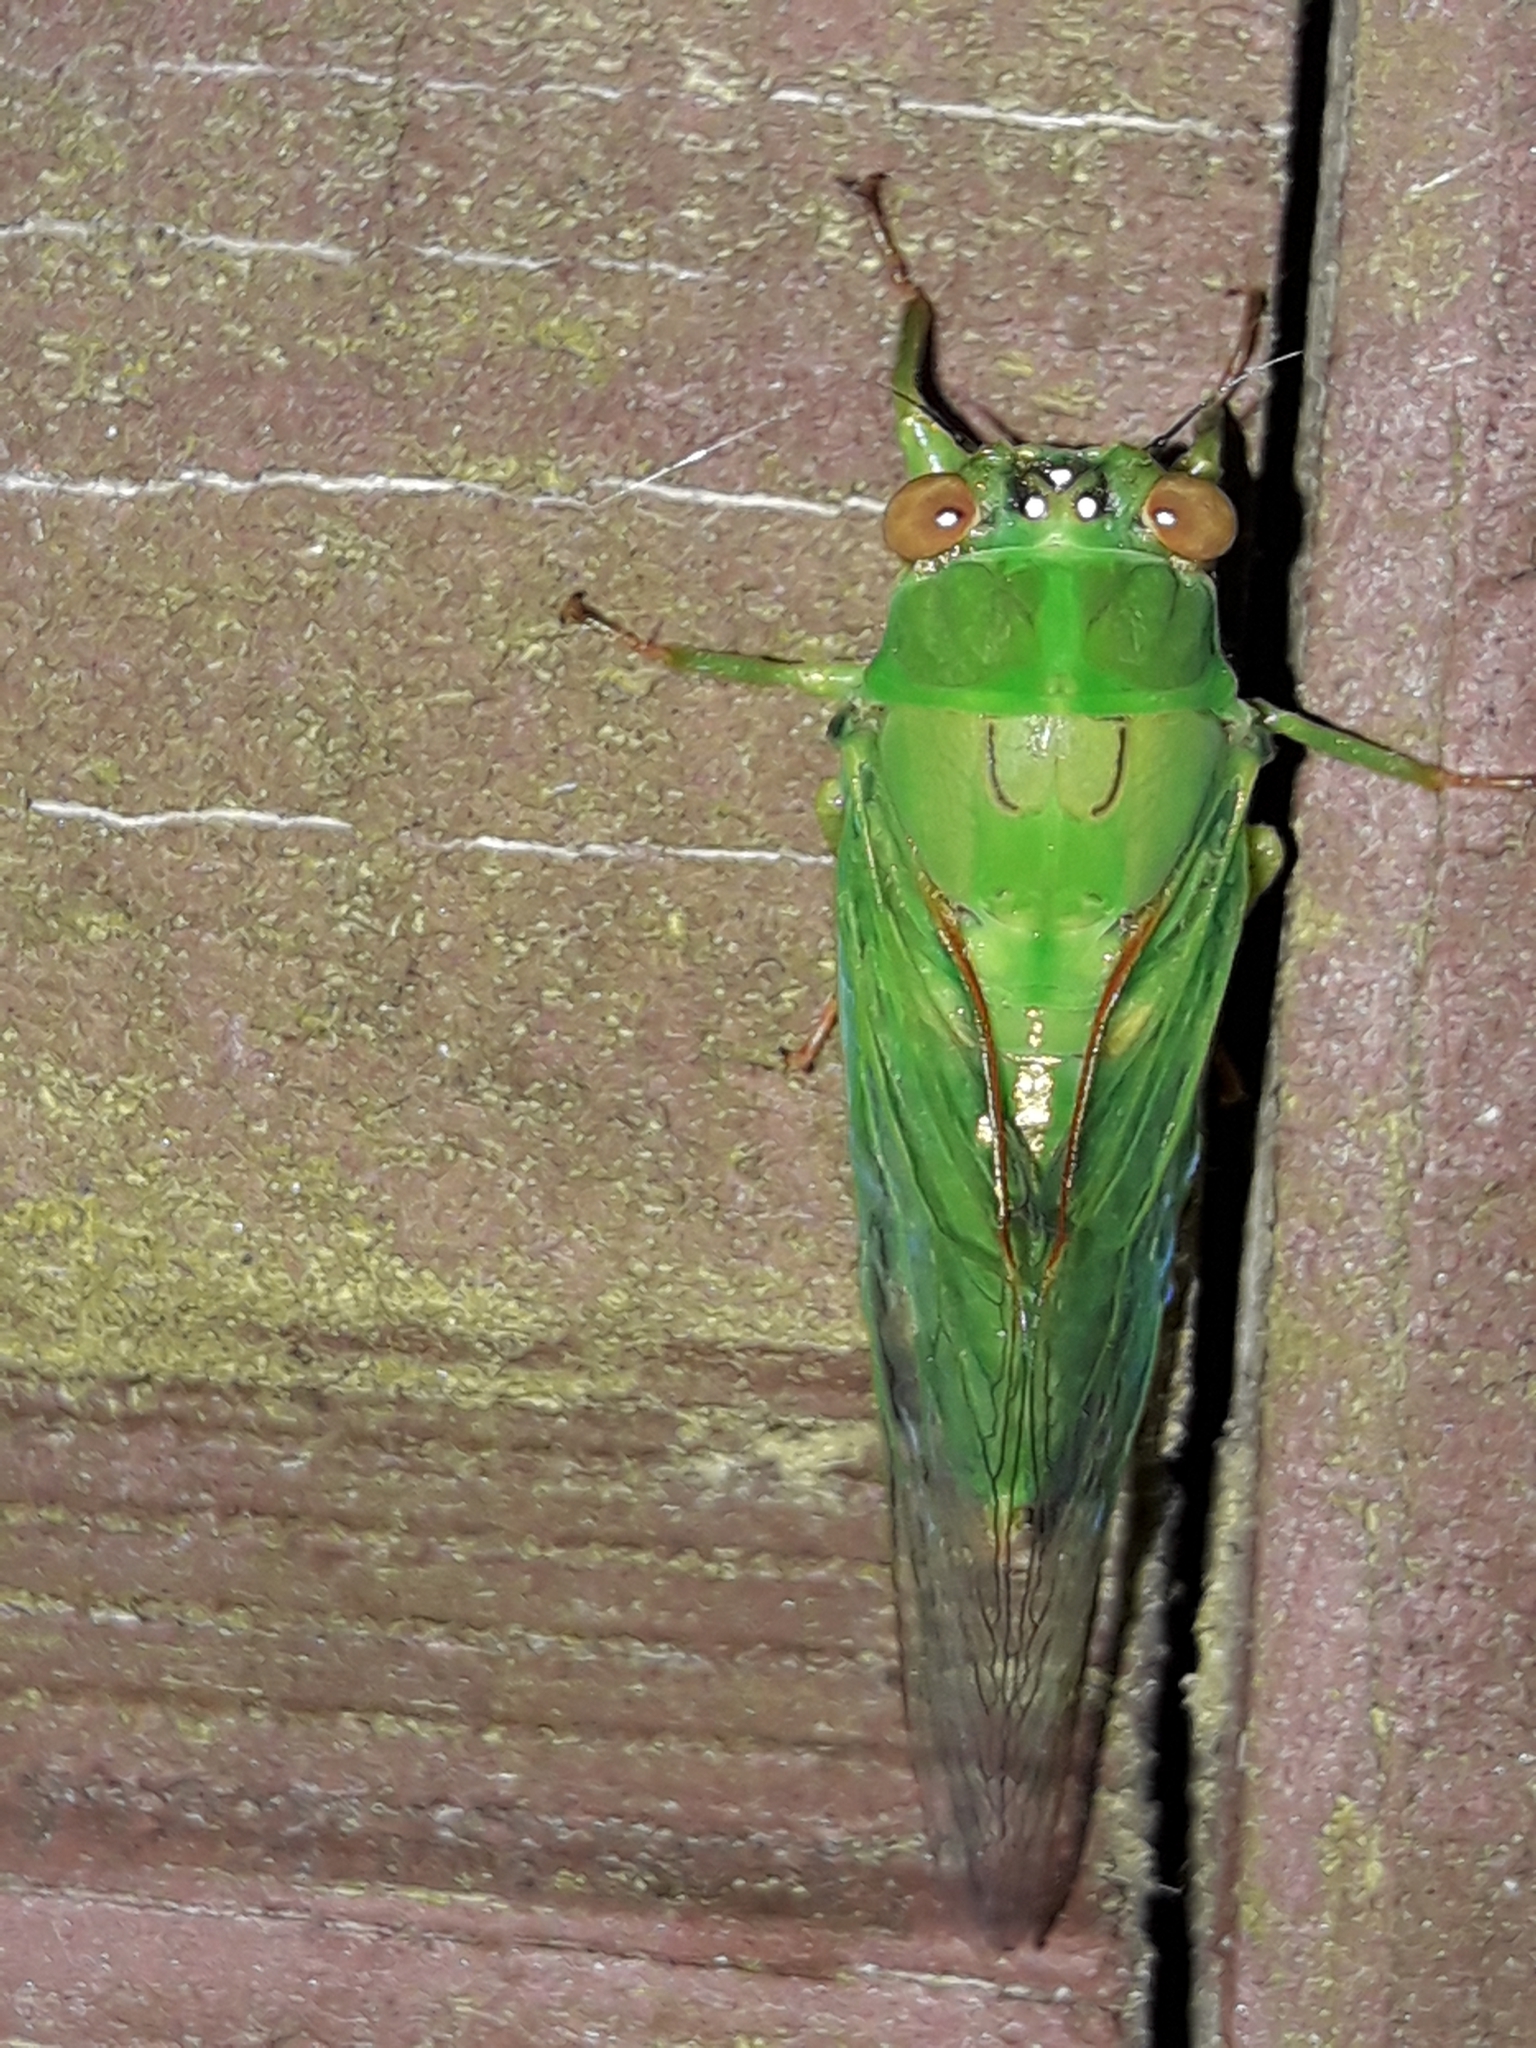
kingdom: Animalia
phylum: Arthropoda
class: Insecta
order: Hemiptera
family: Cicadidae
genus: Kikihia
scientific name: Kikihia ochrina
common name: April green cicada
